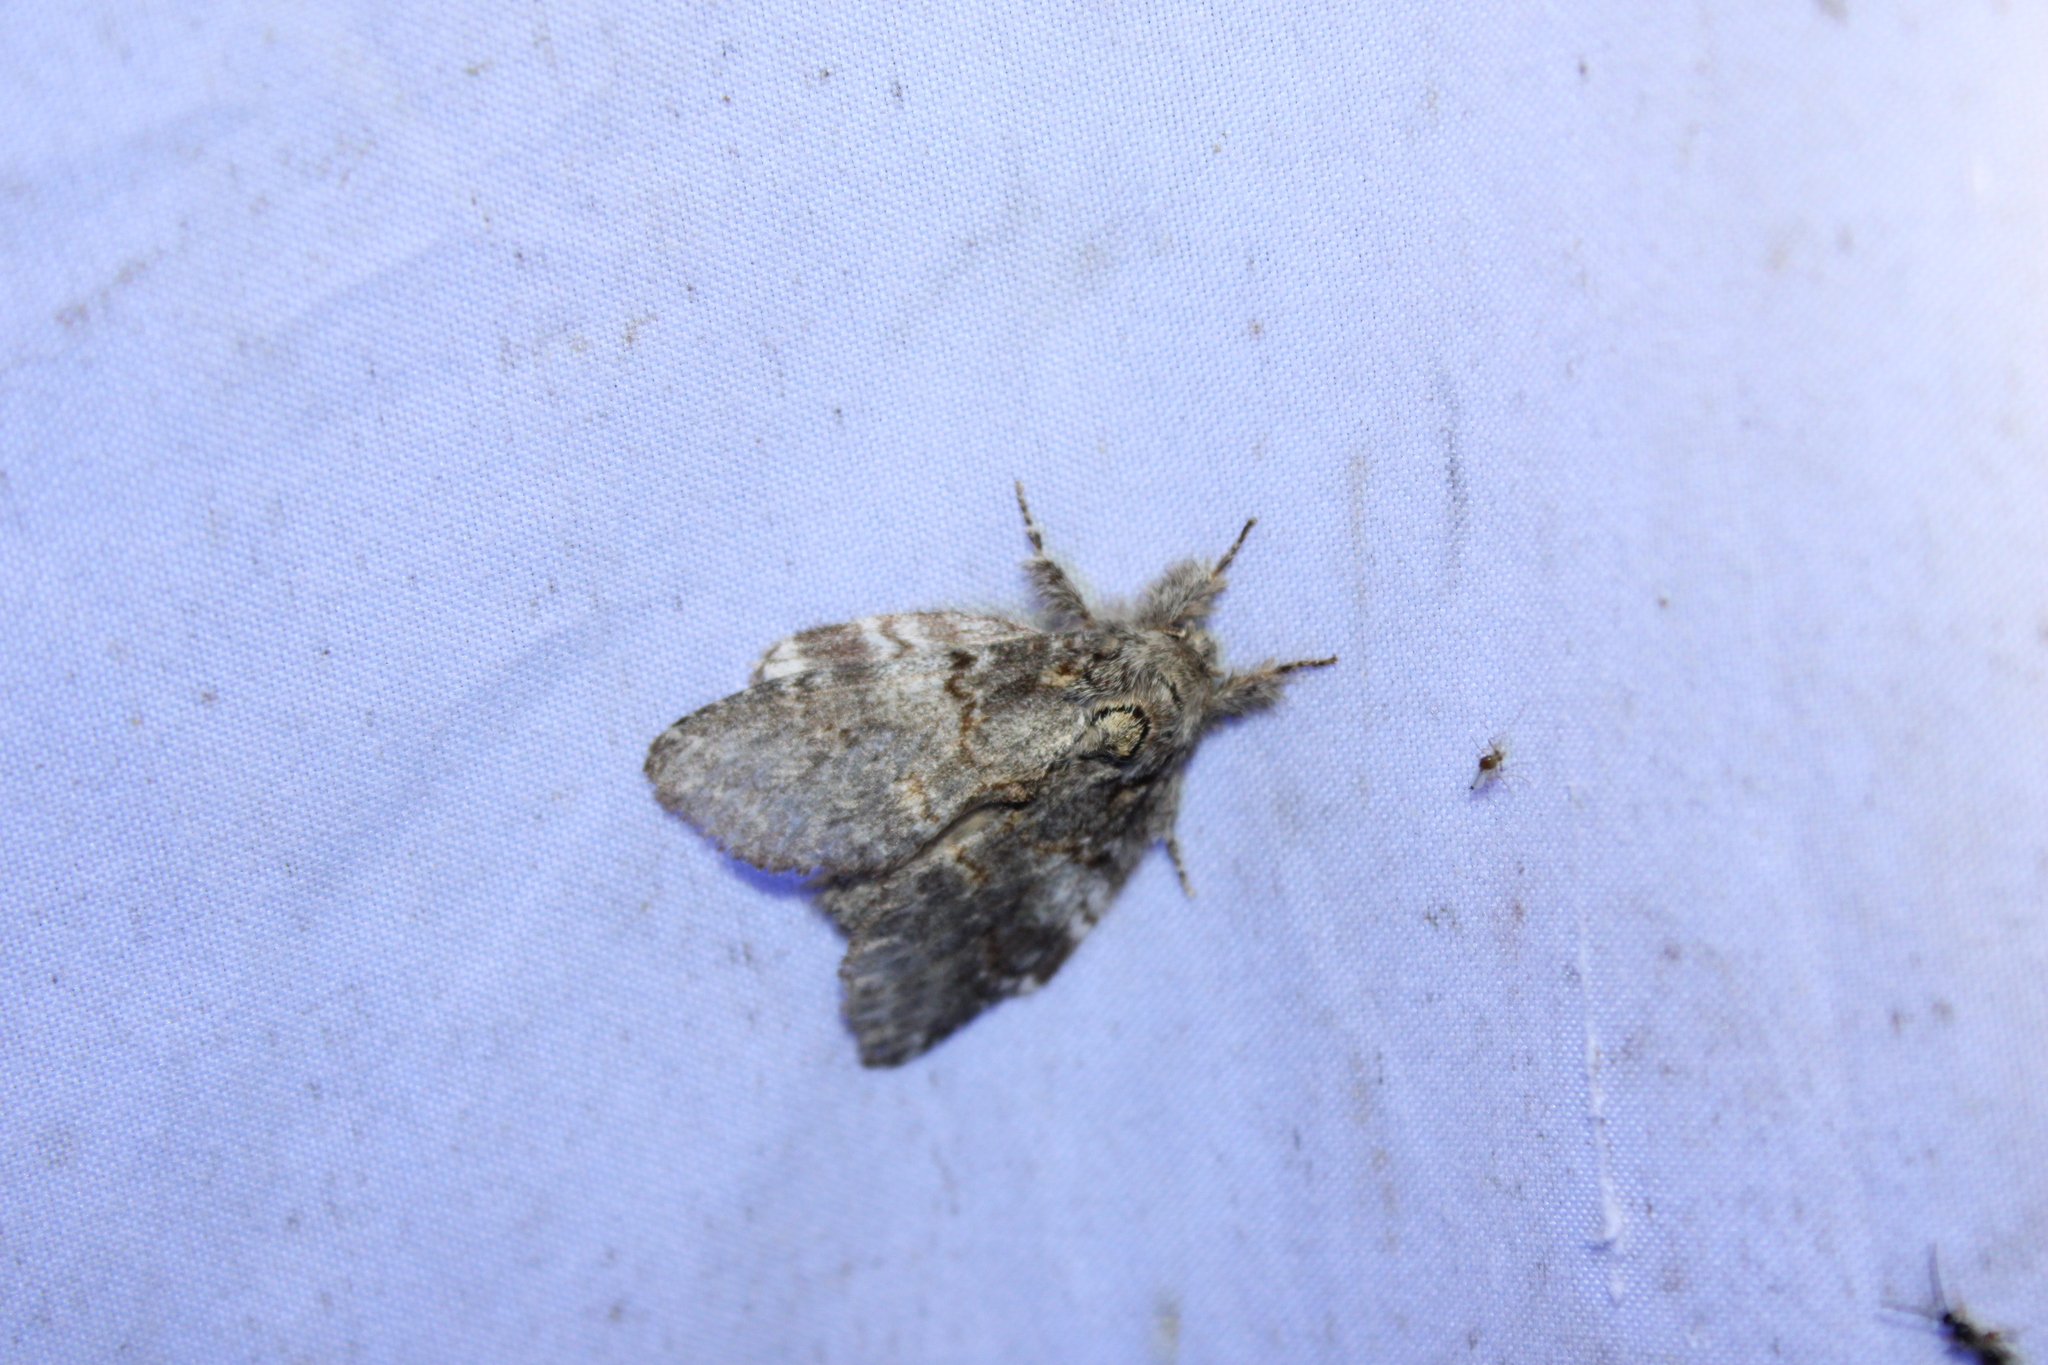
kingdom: Animalia
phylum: Arthropoda
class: Insecta
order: Lepidoptera
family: Notodontidae
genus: Peridea
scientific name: Peridea angulosa
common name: Angulose prominent
